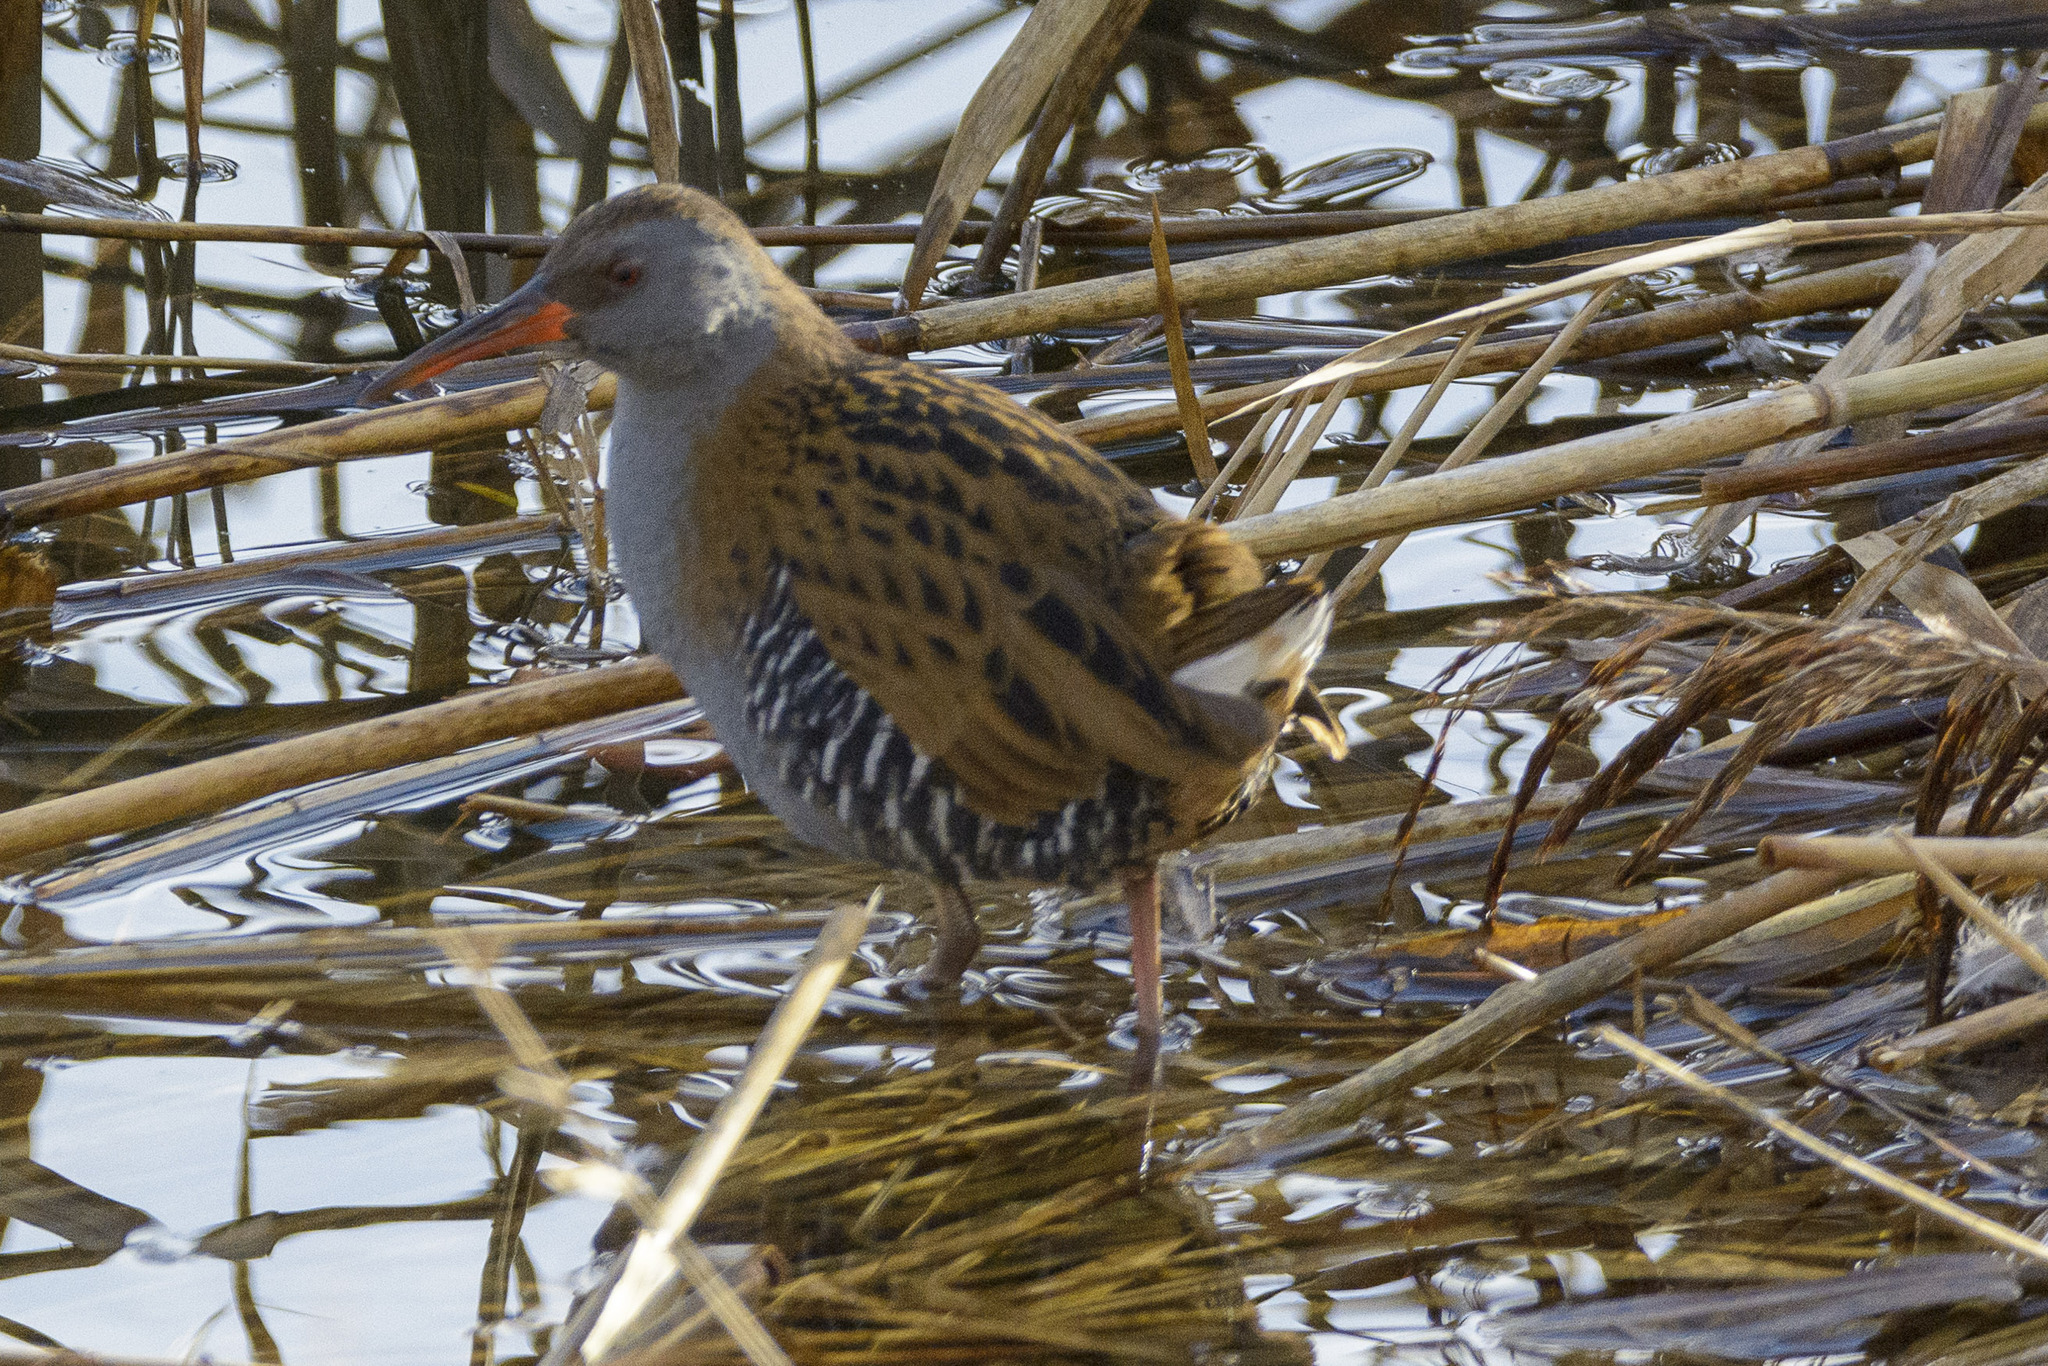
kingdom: Animalia
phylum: Chordata
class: Aves
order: Gruiformes
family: Rallidae
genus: Rallus
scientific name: Rallus aquaticus
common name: Water rail
